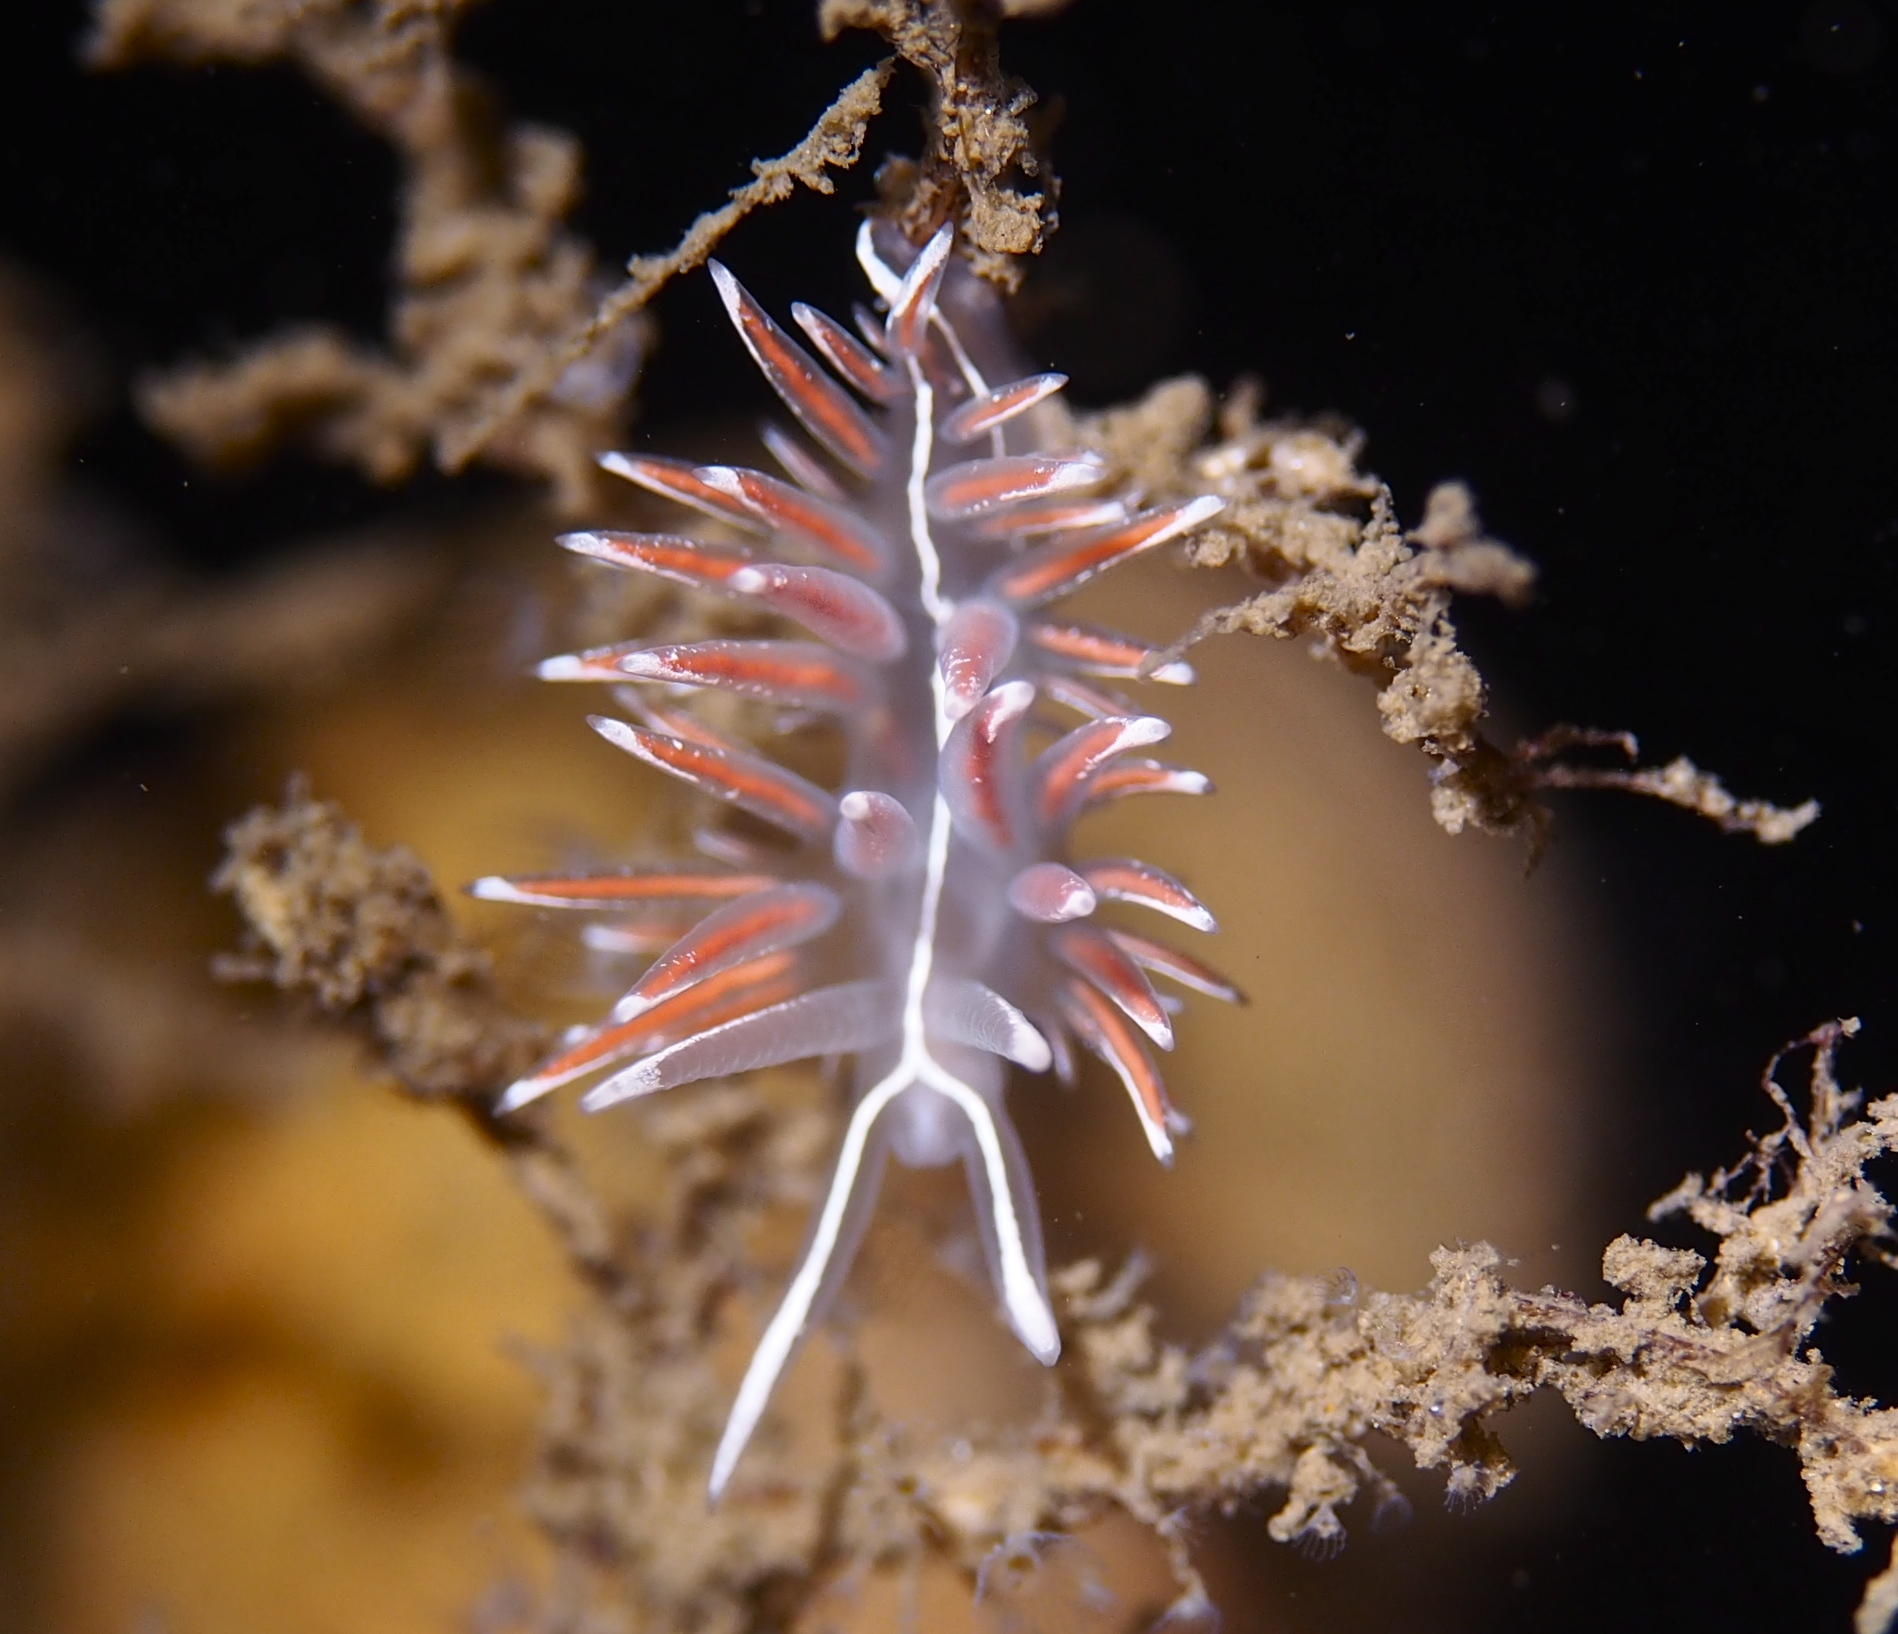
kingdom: Animalia
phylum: Mollusca
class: Gastropoda
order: Nudibranchia
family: Coryphellidae
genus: Coryphella
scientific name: Coryphella lineata
